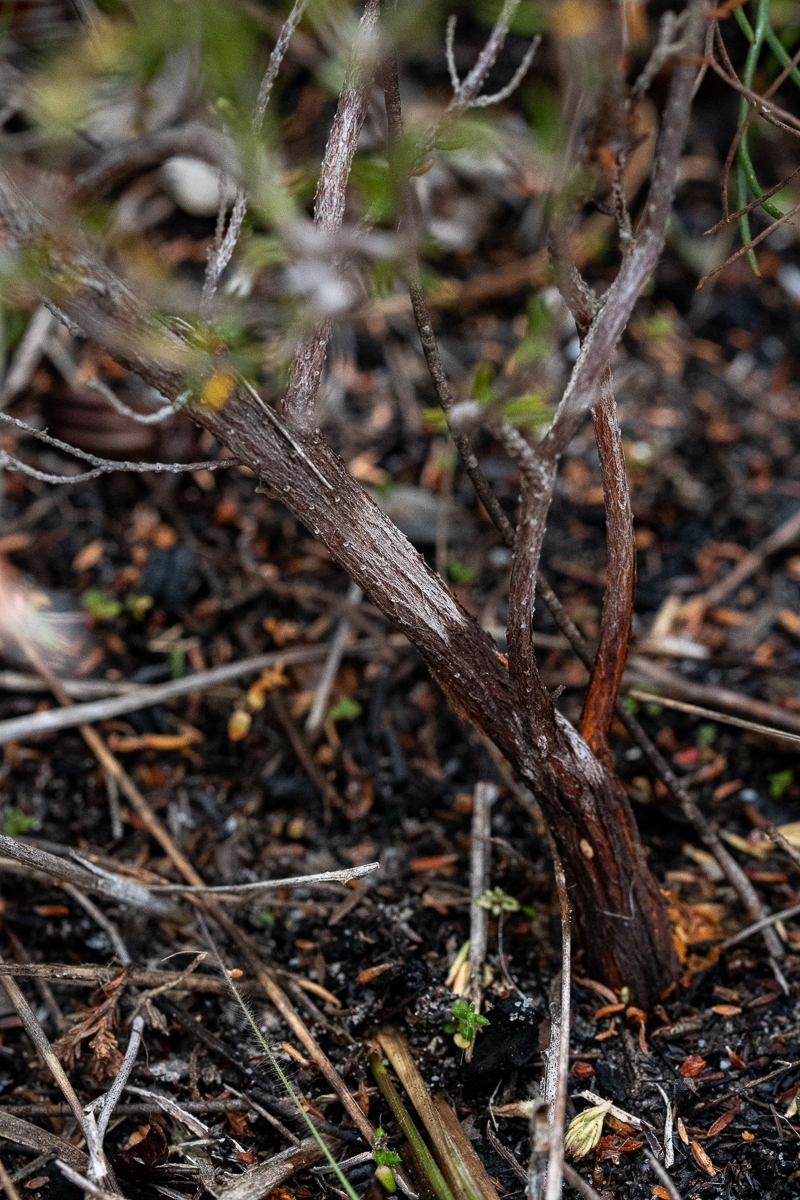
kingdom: Plantae
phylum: Tracheophyta
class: Magnoliopsida
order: Proteales
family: Proteaceae
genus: Serruria
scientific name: Serruria ascendens
